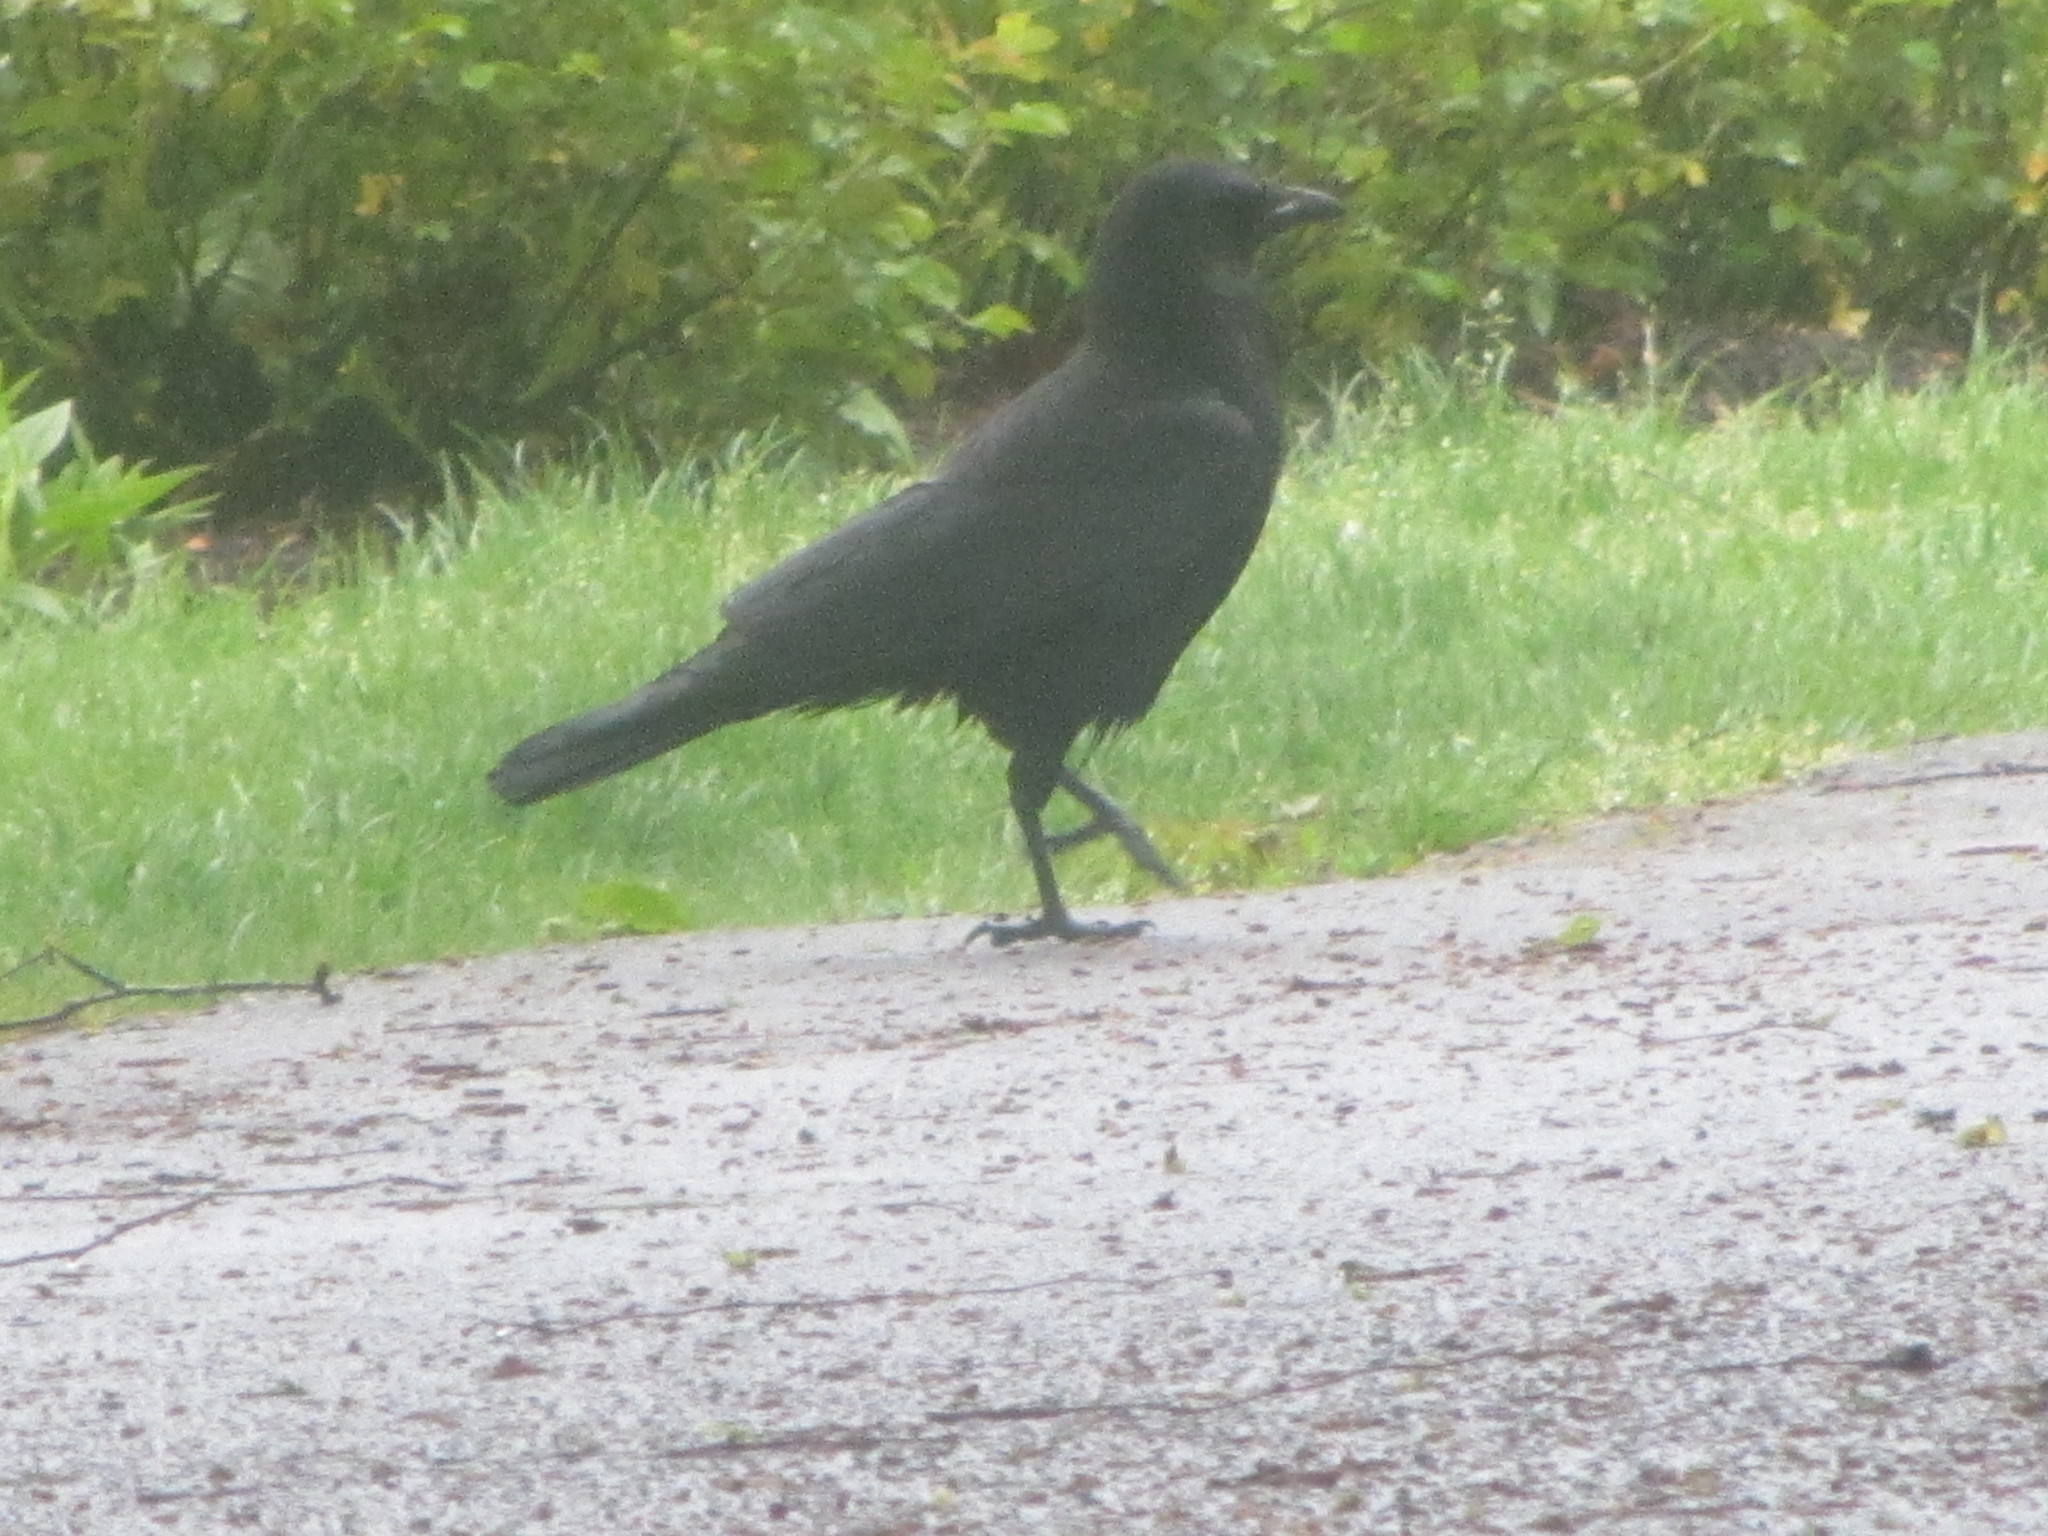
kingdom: Animalia
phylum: Chordata
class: Aves
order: Passeriformes
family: Corvidae
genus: Corvus
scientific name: Corvus brachyrhynchos
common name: American crow
